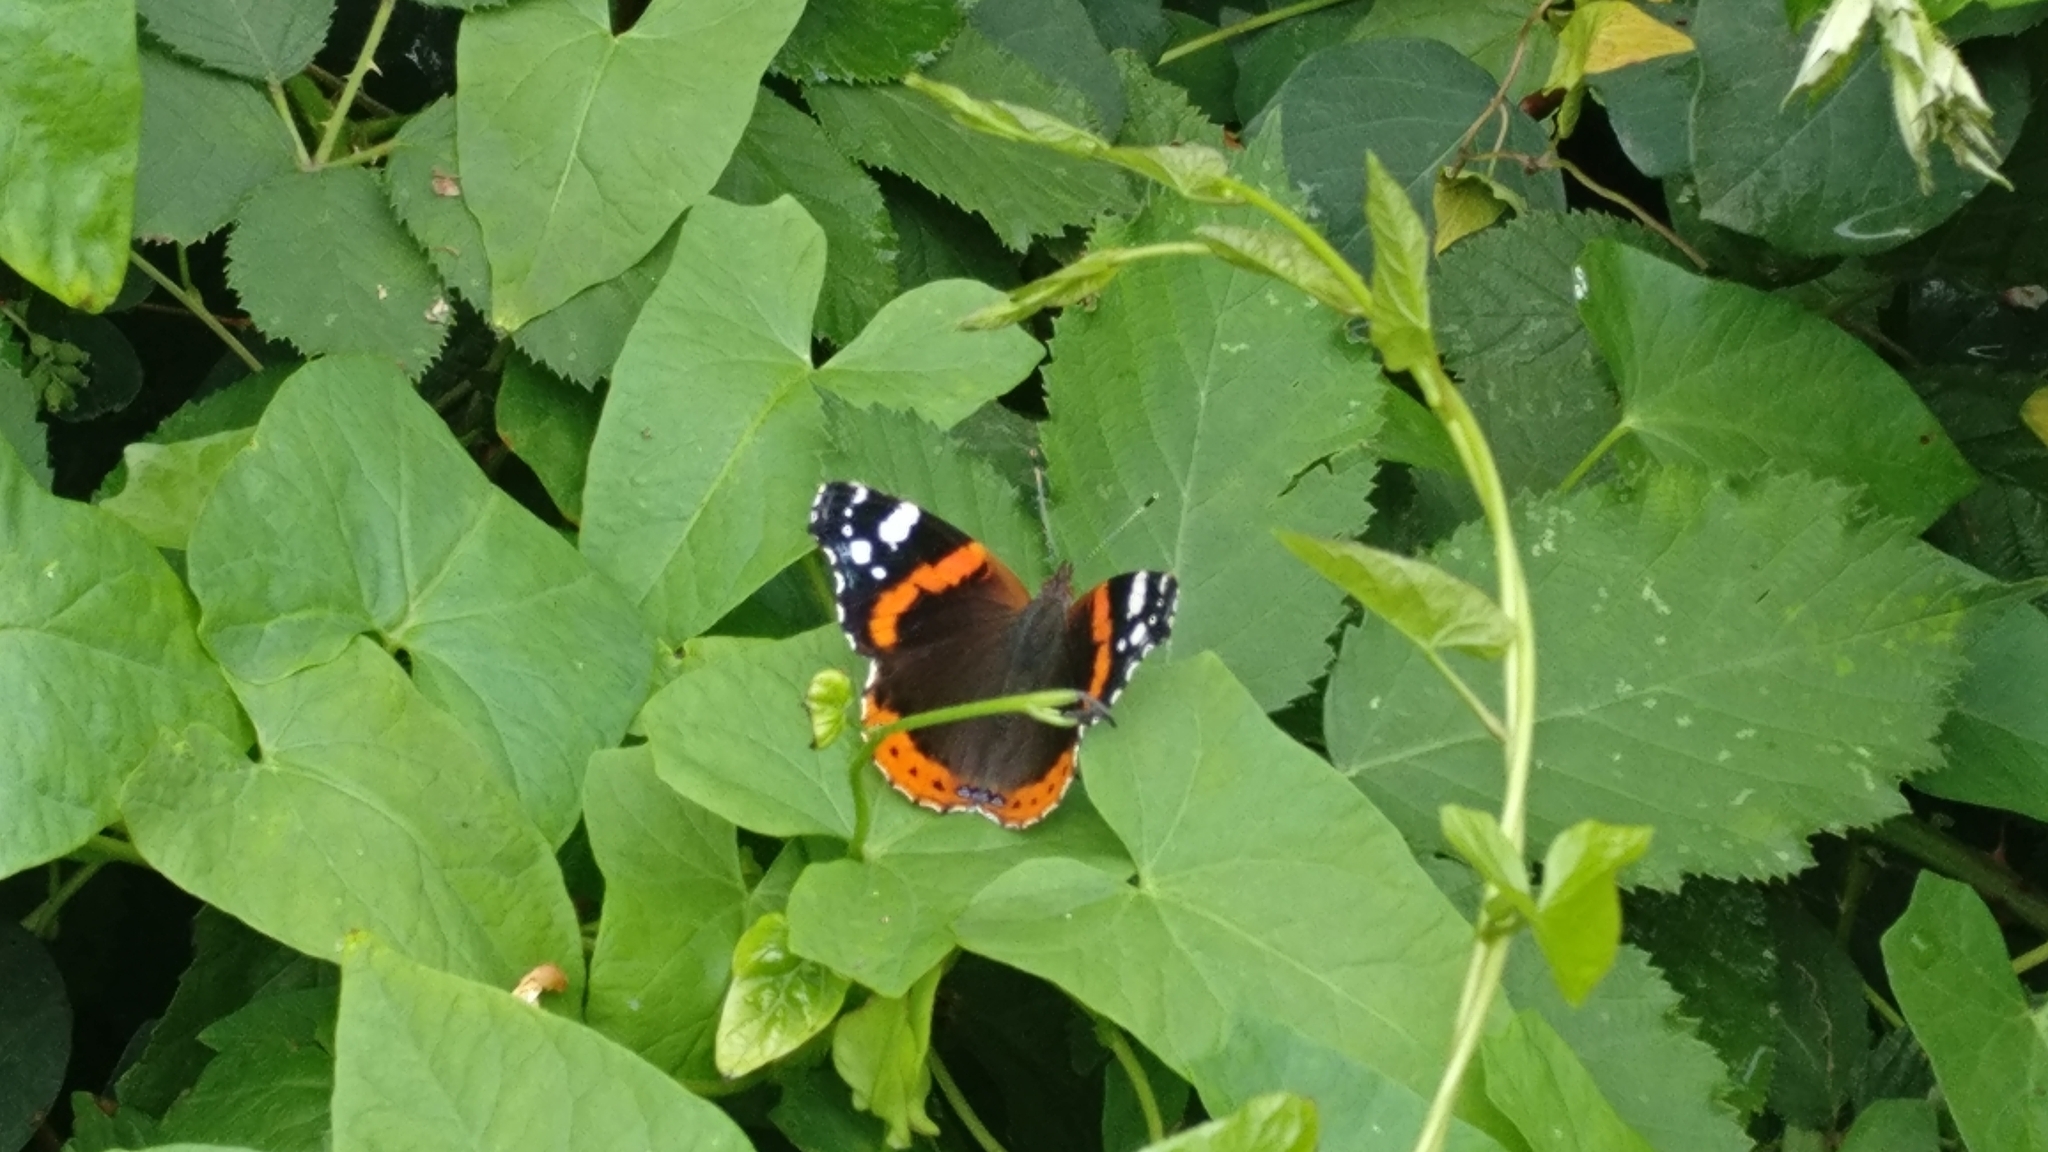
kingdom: Animalia
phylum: Arthropoda
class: Insecta
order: Lepidoptera
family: Nymphalidae
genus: Vanessa
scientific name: Vanessa atalanta
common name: Red admiral
